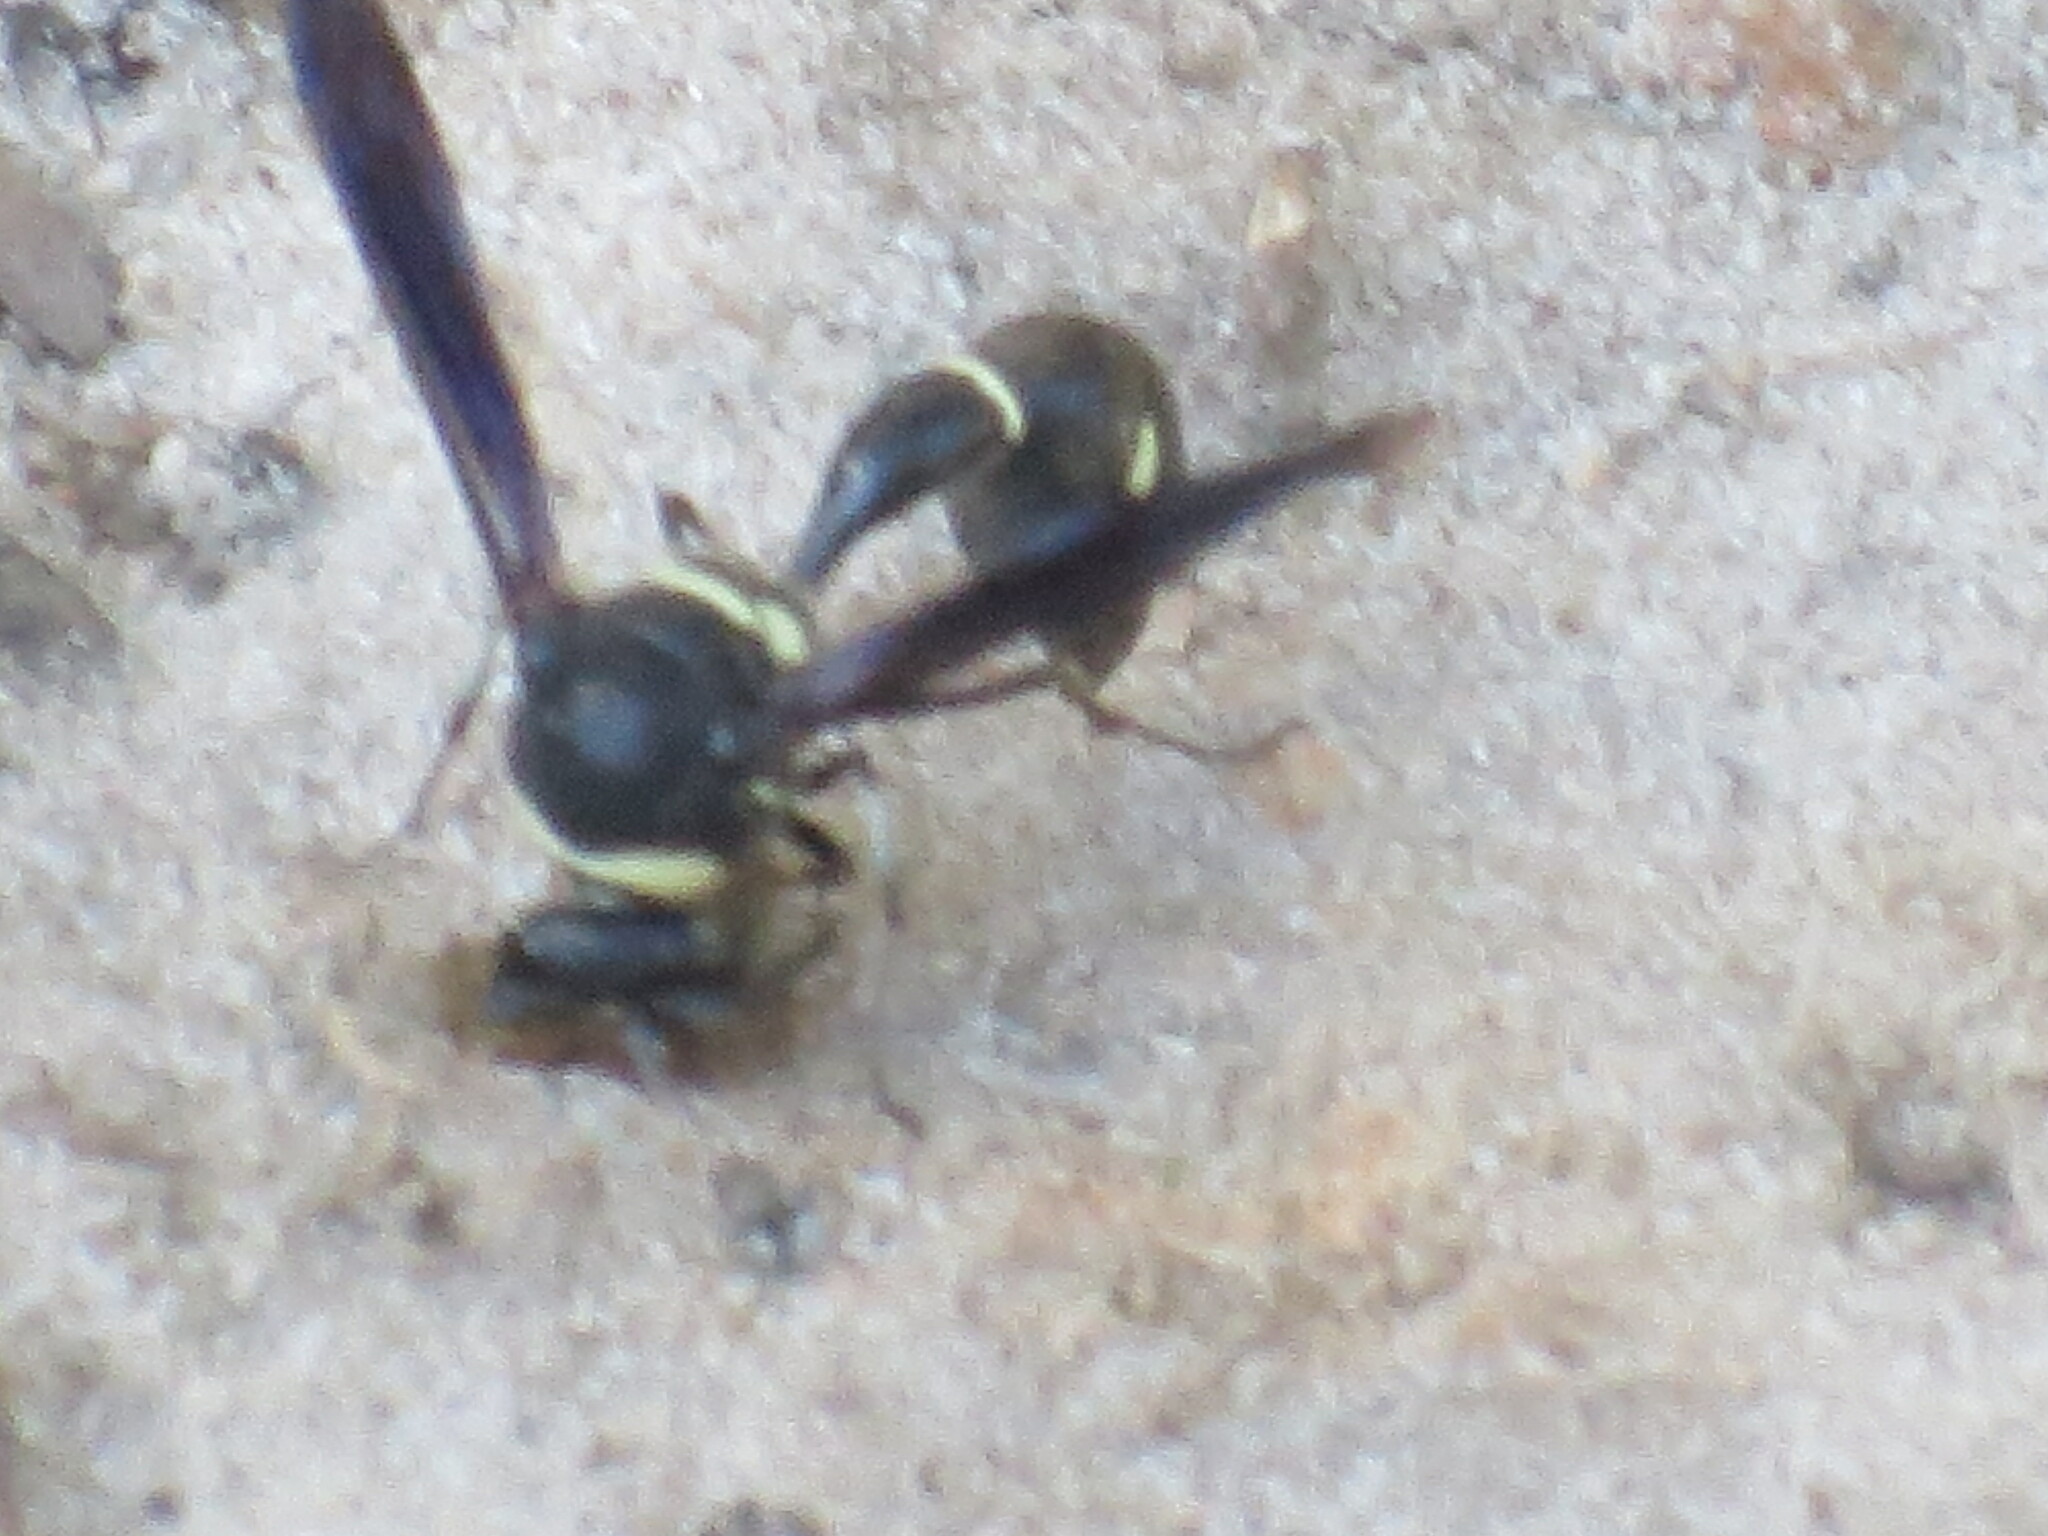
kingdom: Animalia
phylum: Arthropoda
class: Insecta
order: Hymenoptera
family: Vespidae
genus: Eumenes
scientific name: Eumenes fraternus
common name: Fraternal potter wasp
